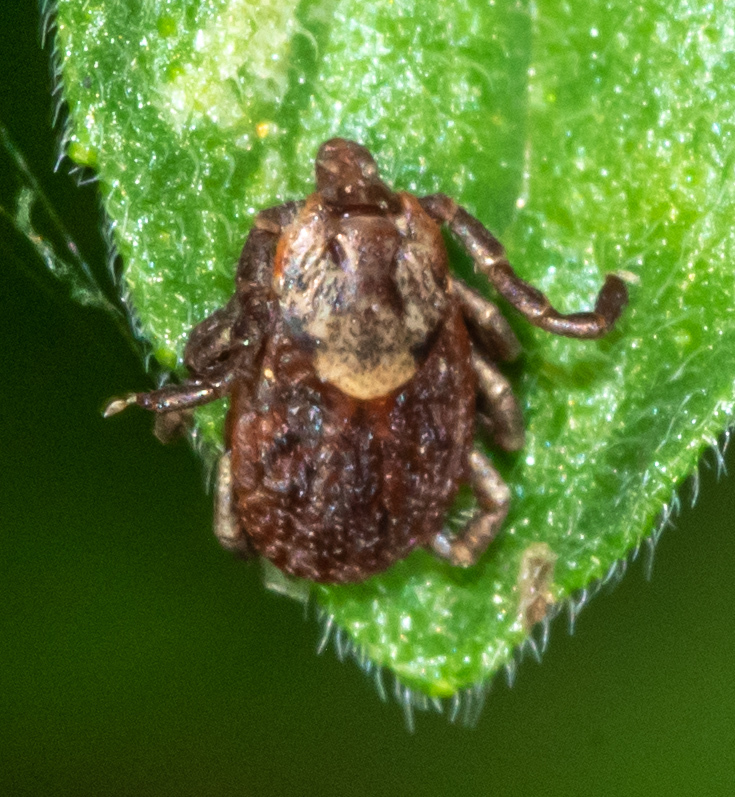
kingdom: Animalia
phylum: Arthropoda
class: Arachnida
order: Ixodida
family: Ixodidae
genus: Dermacentor
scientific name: Dermacentor occidentalis
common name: Net tick
